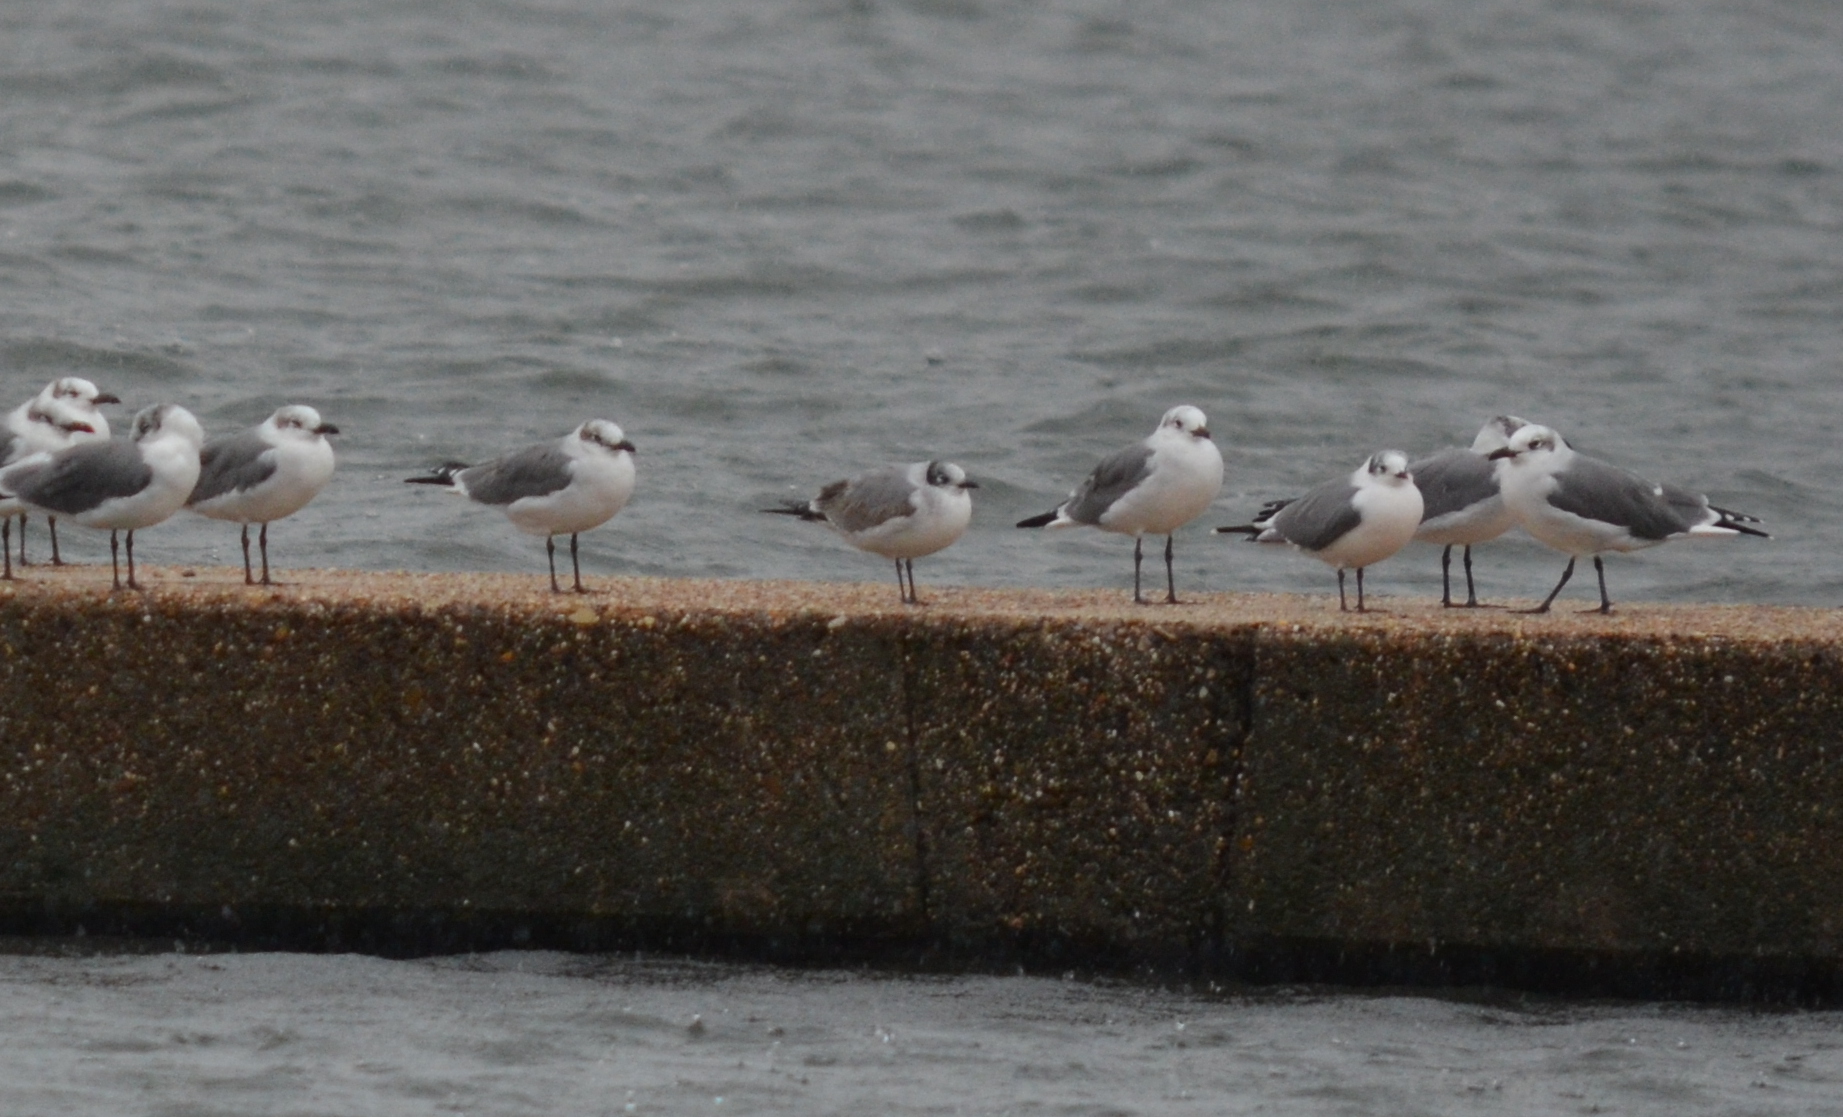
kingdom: Animalia
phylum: Chordata
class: Aves
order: Charadriiformes
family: Laridae
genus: Leucophaeus
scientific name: Leucophaeus pipixcan
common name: Franklin's gull
